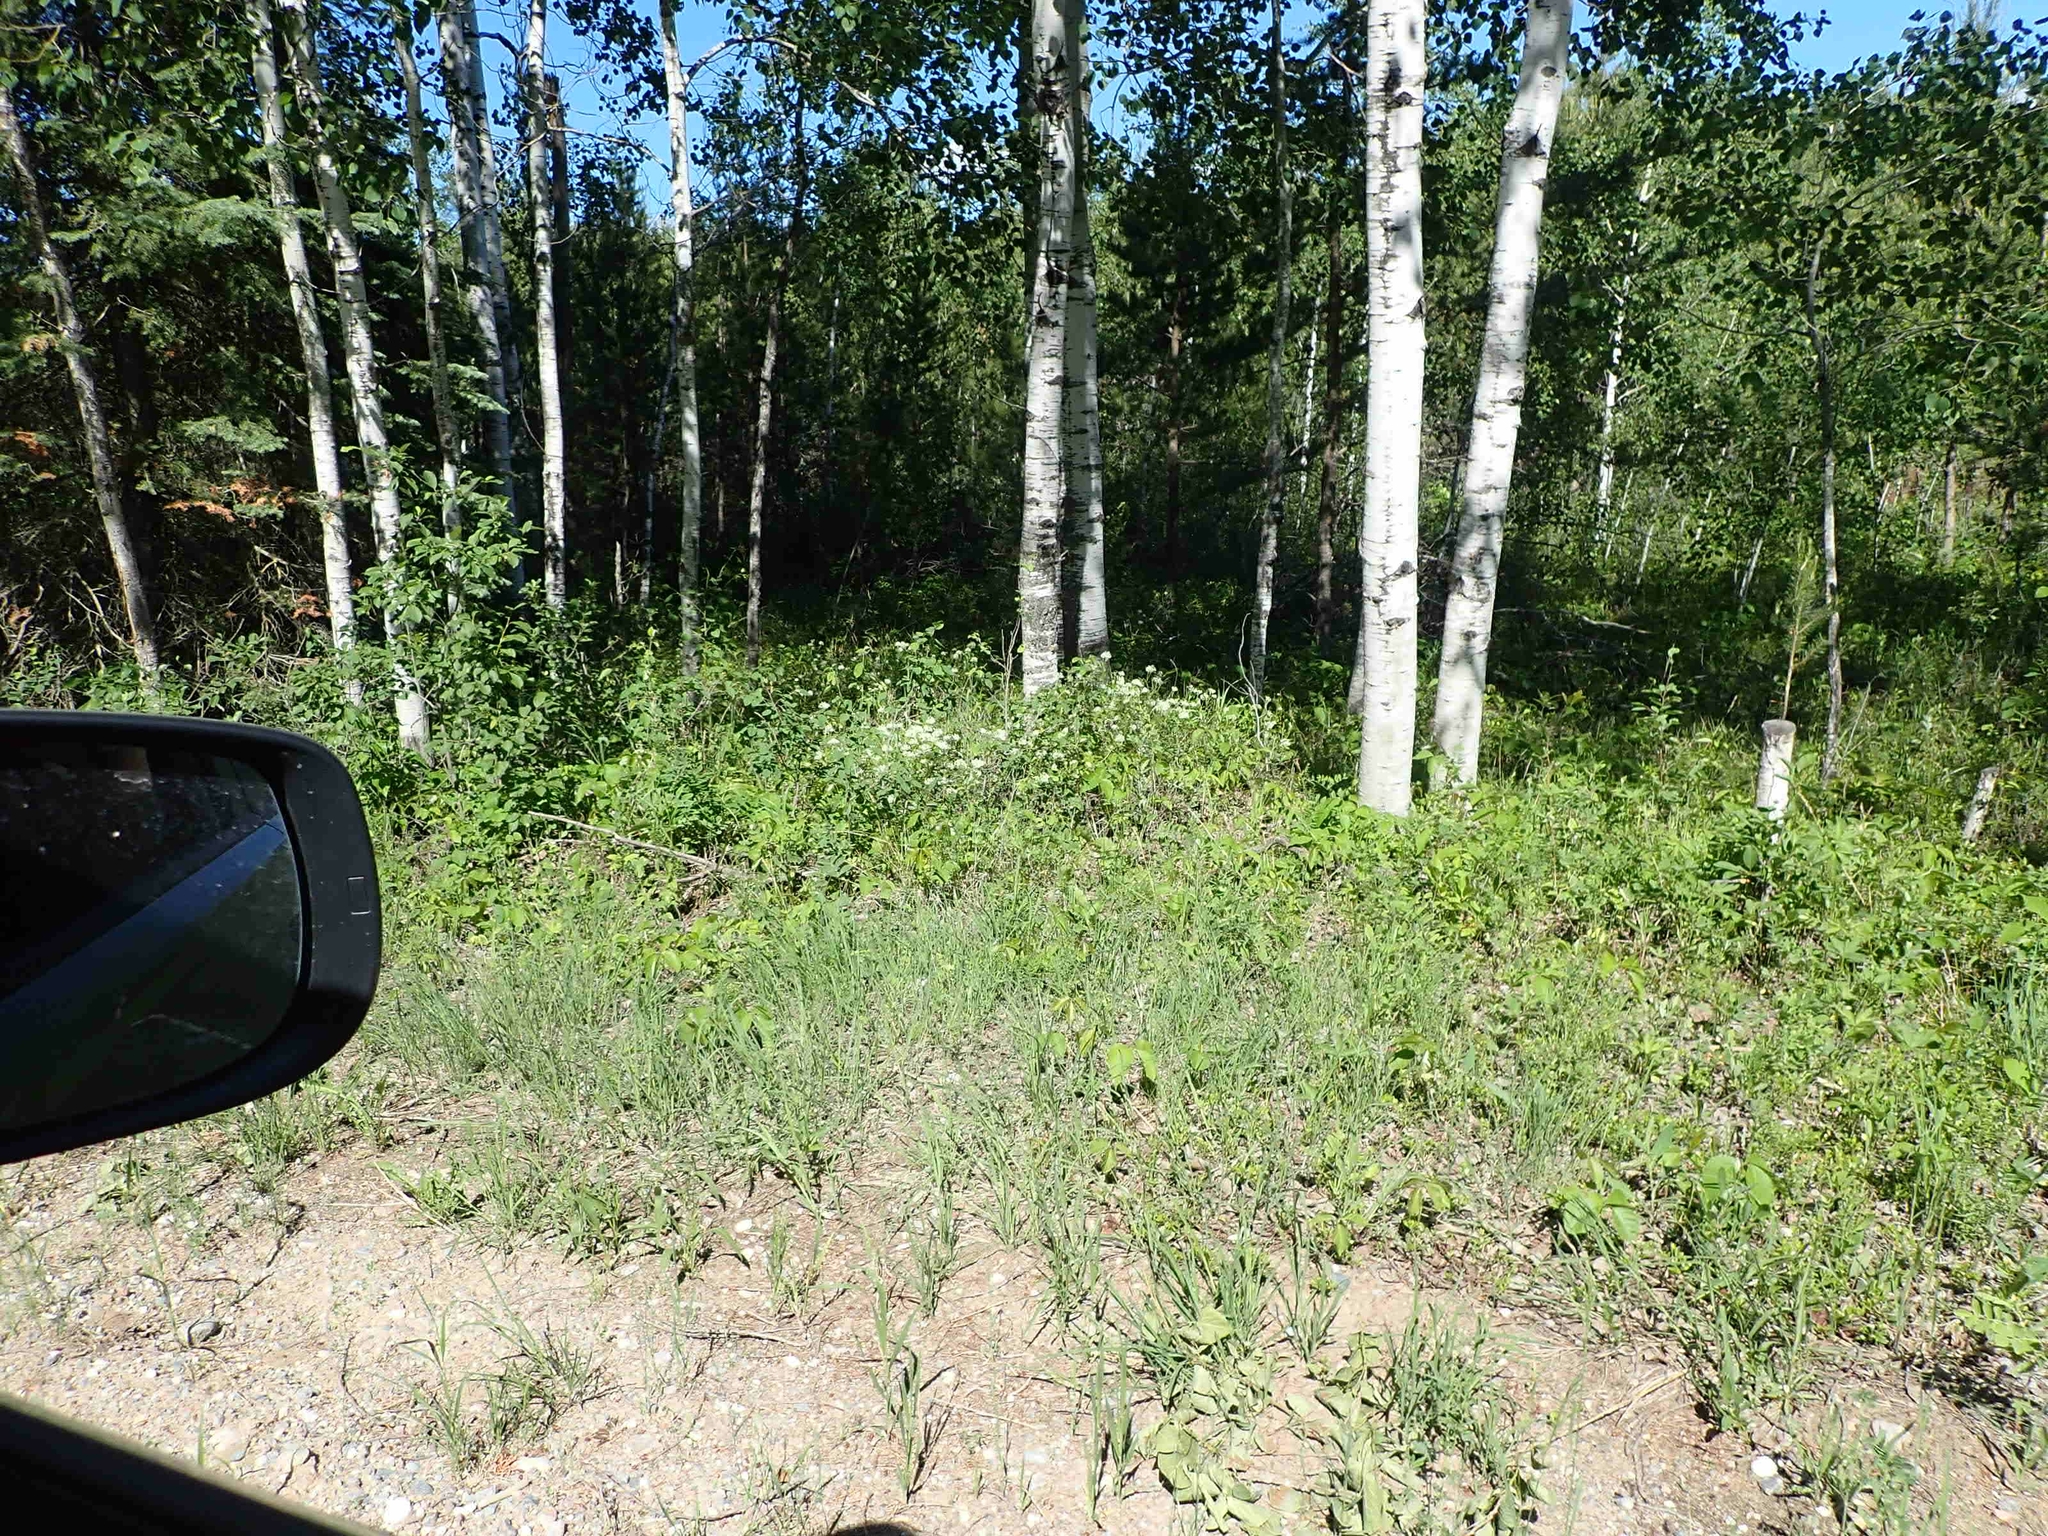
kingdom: Plantae
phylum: Tracheophyta
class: Magnoliopsida
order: Rosales
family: Rhamnaceae
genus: Ceanothus
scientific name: Ceanothus herbaceus
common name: Inland ceanothus
